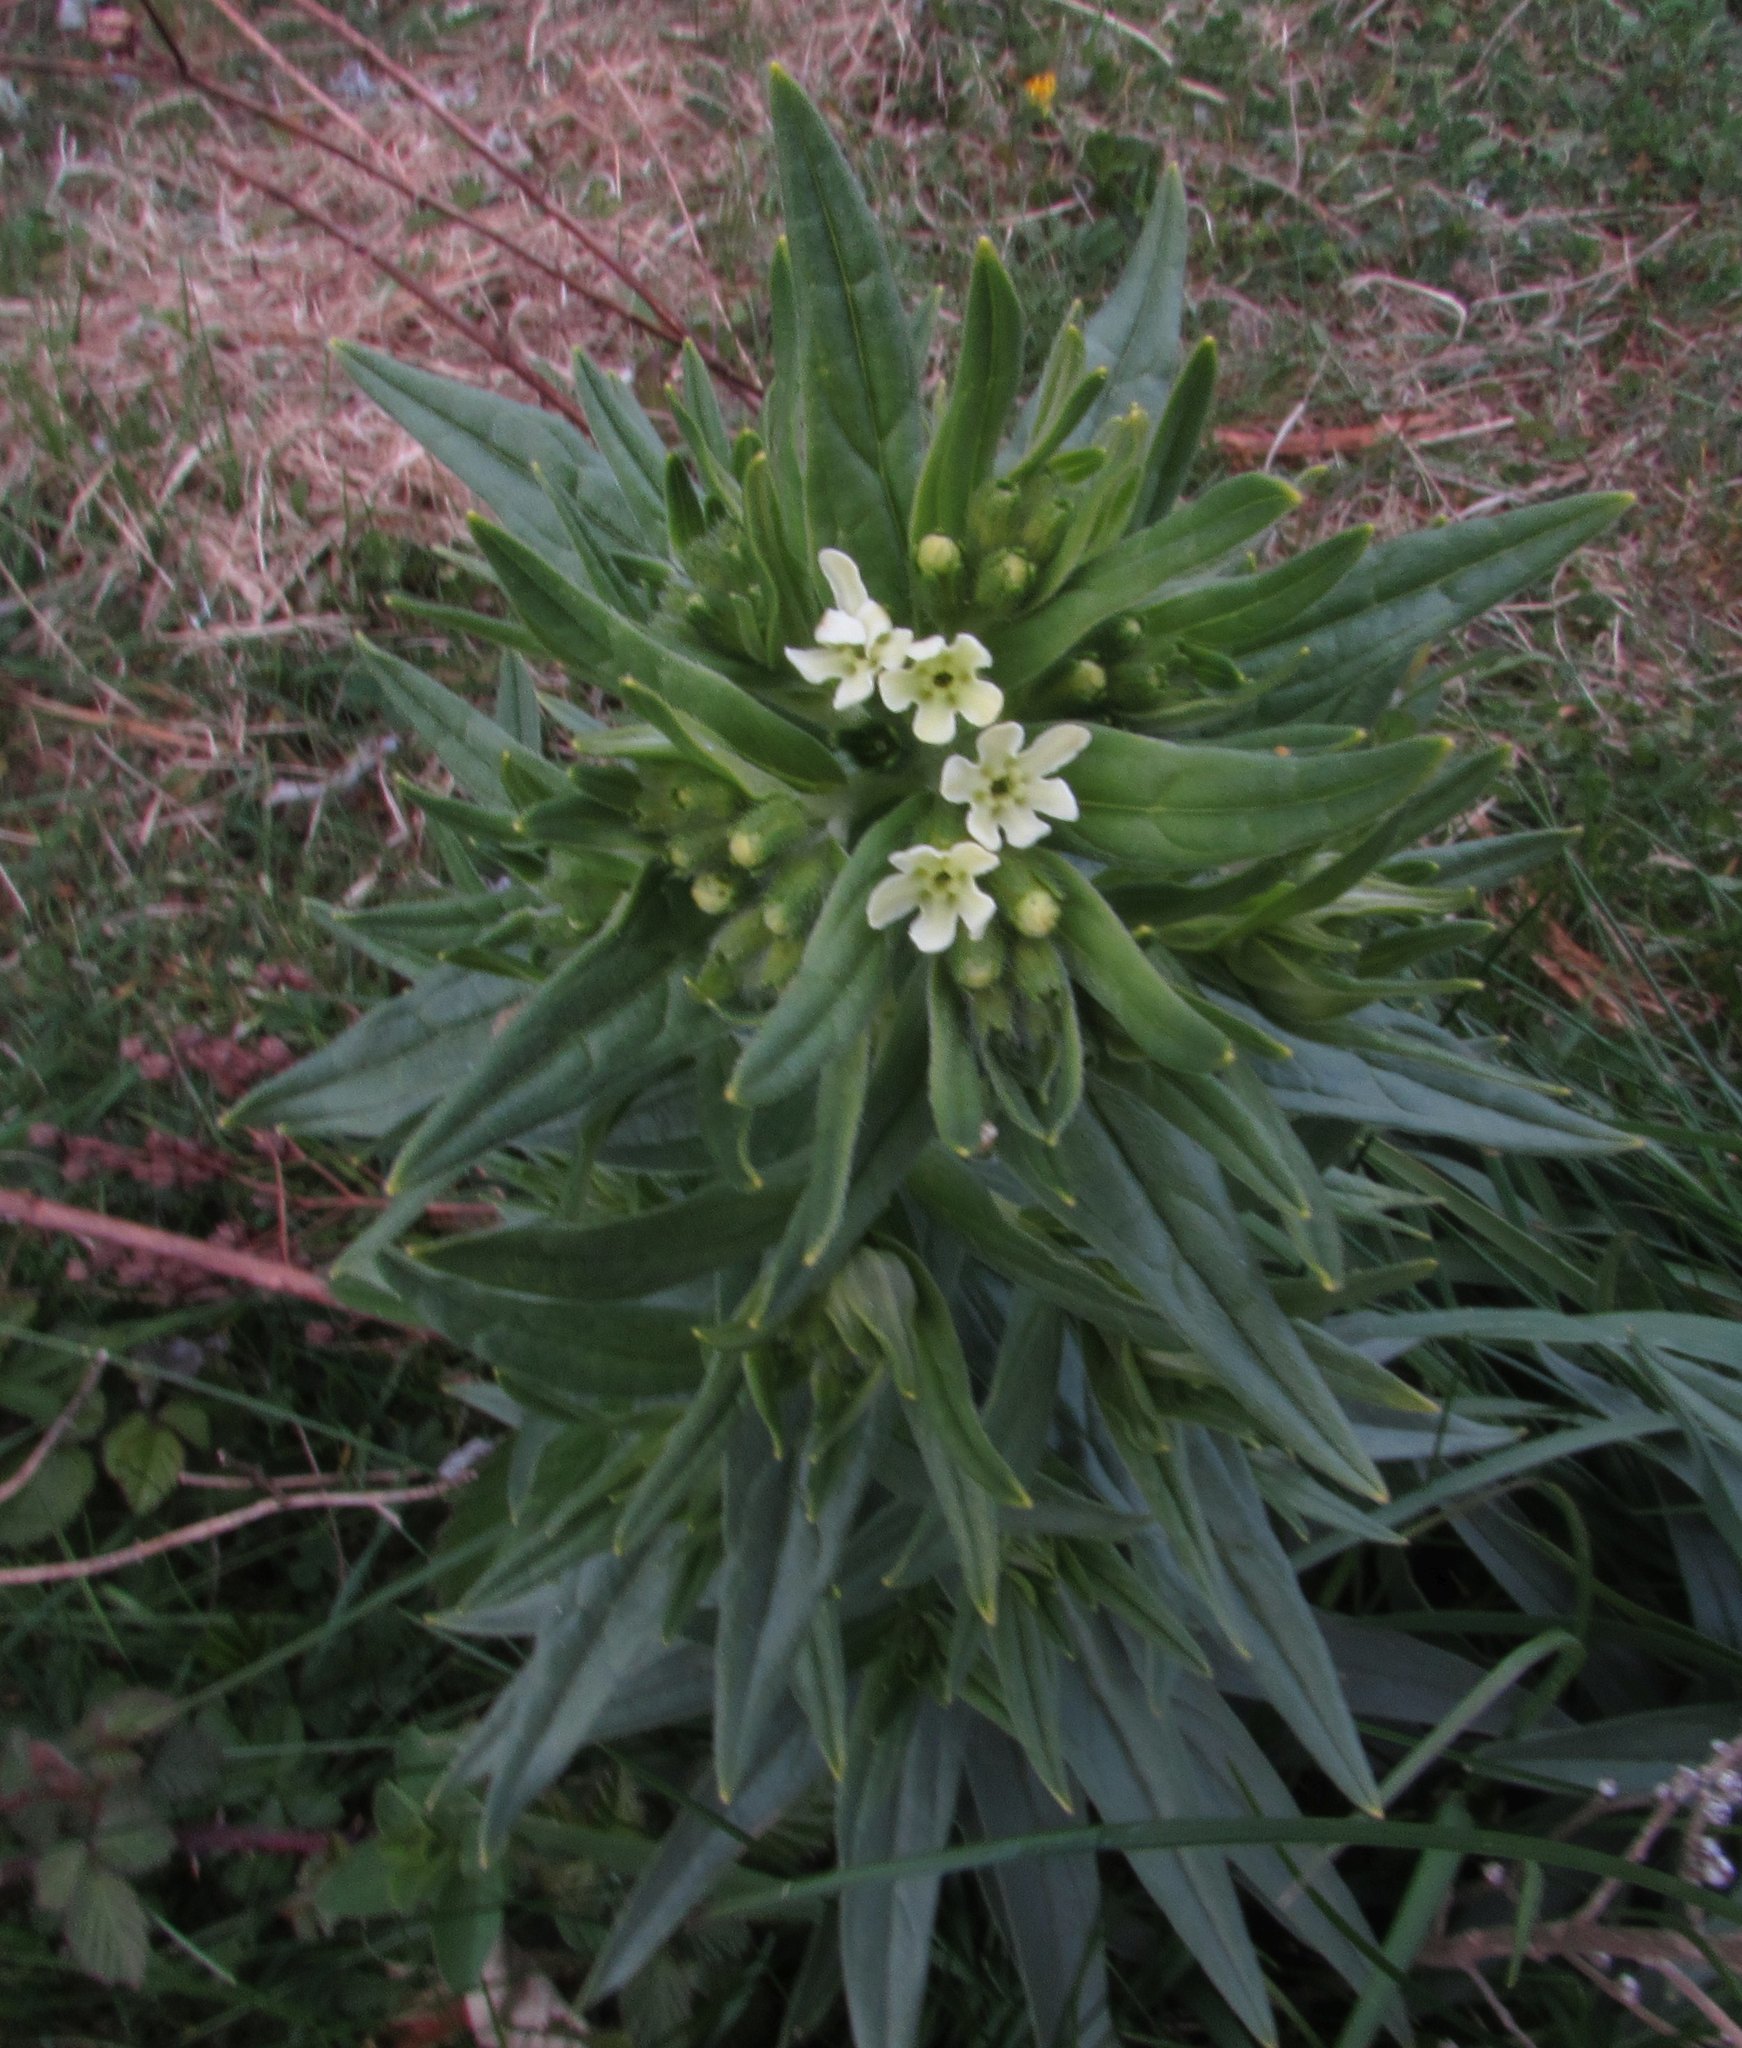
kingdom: Plantae
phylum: Tracheophyta
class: Magnoliopsida
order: Boraginales
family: Boraginaceae
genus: Lithospermum
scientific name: Lithospermum officinale
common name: Common gromwell
